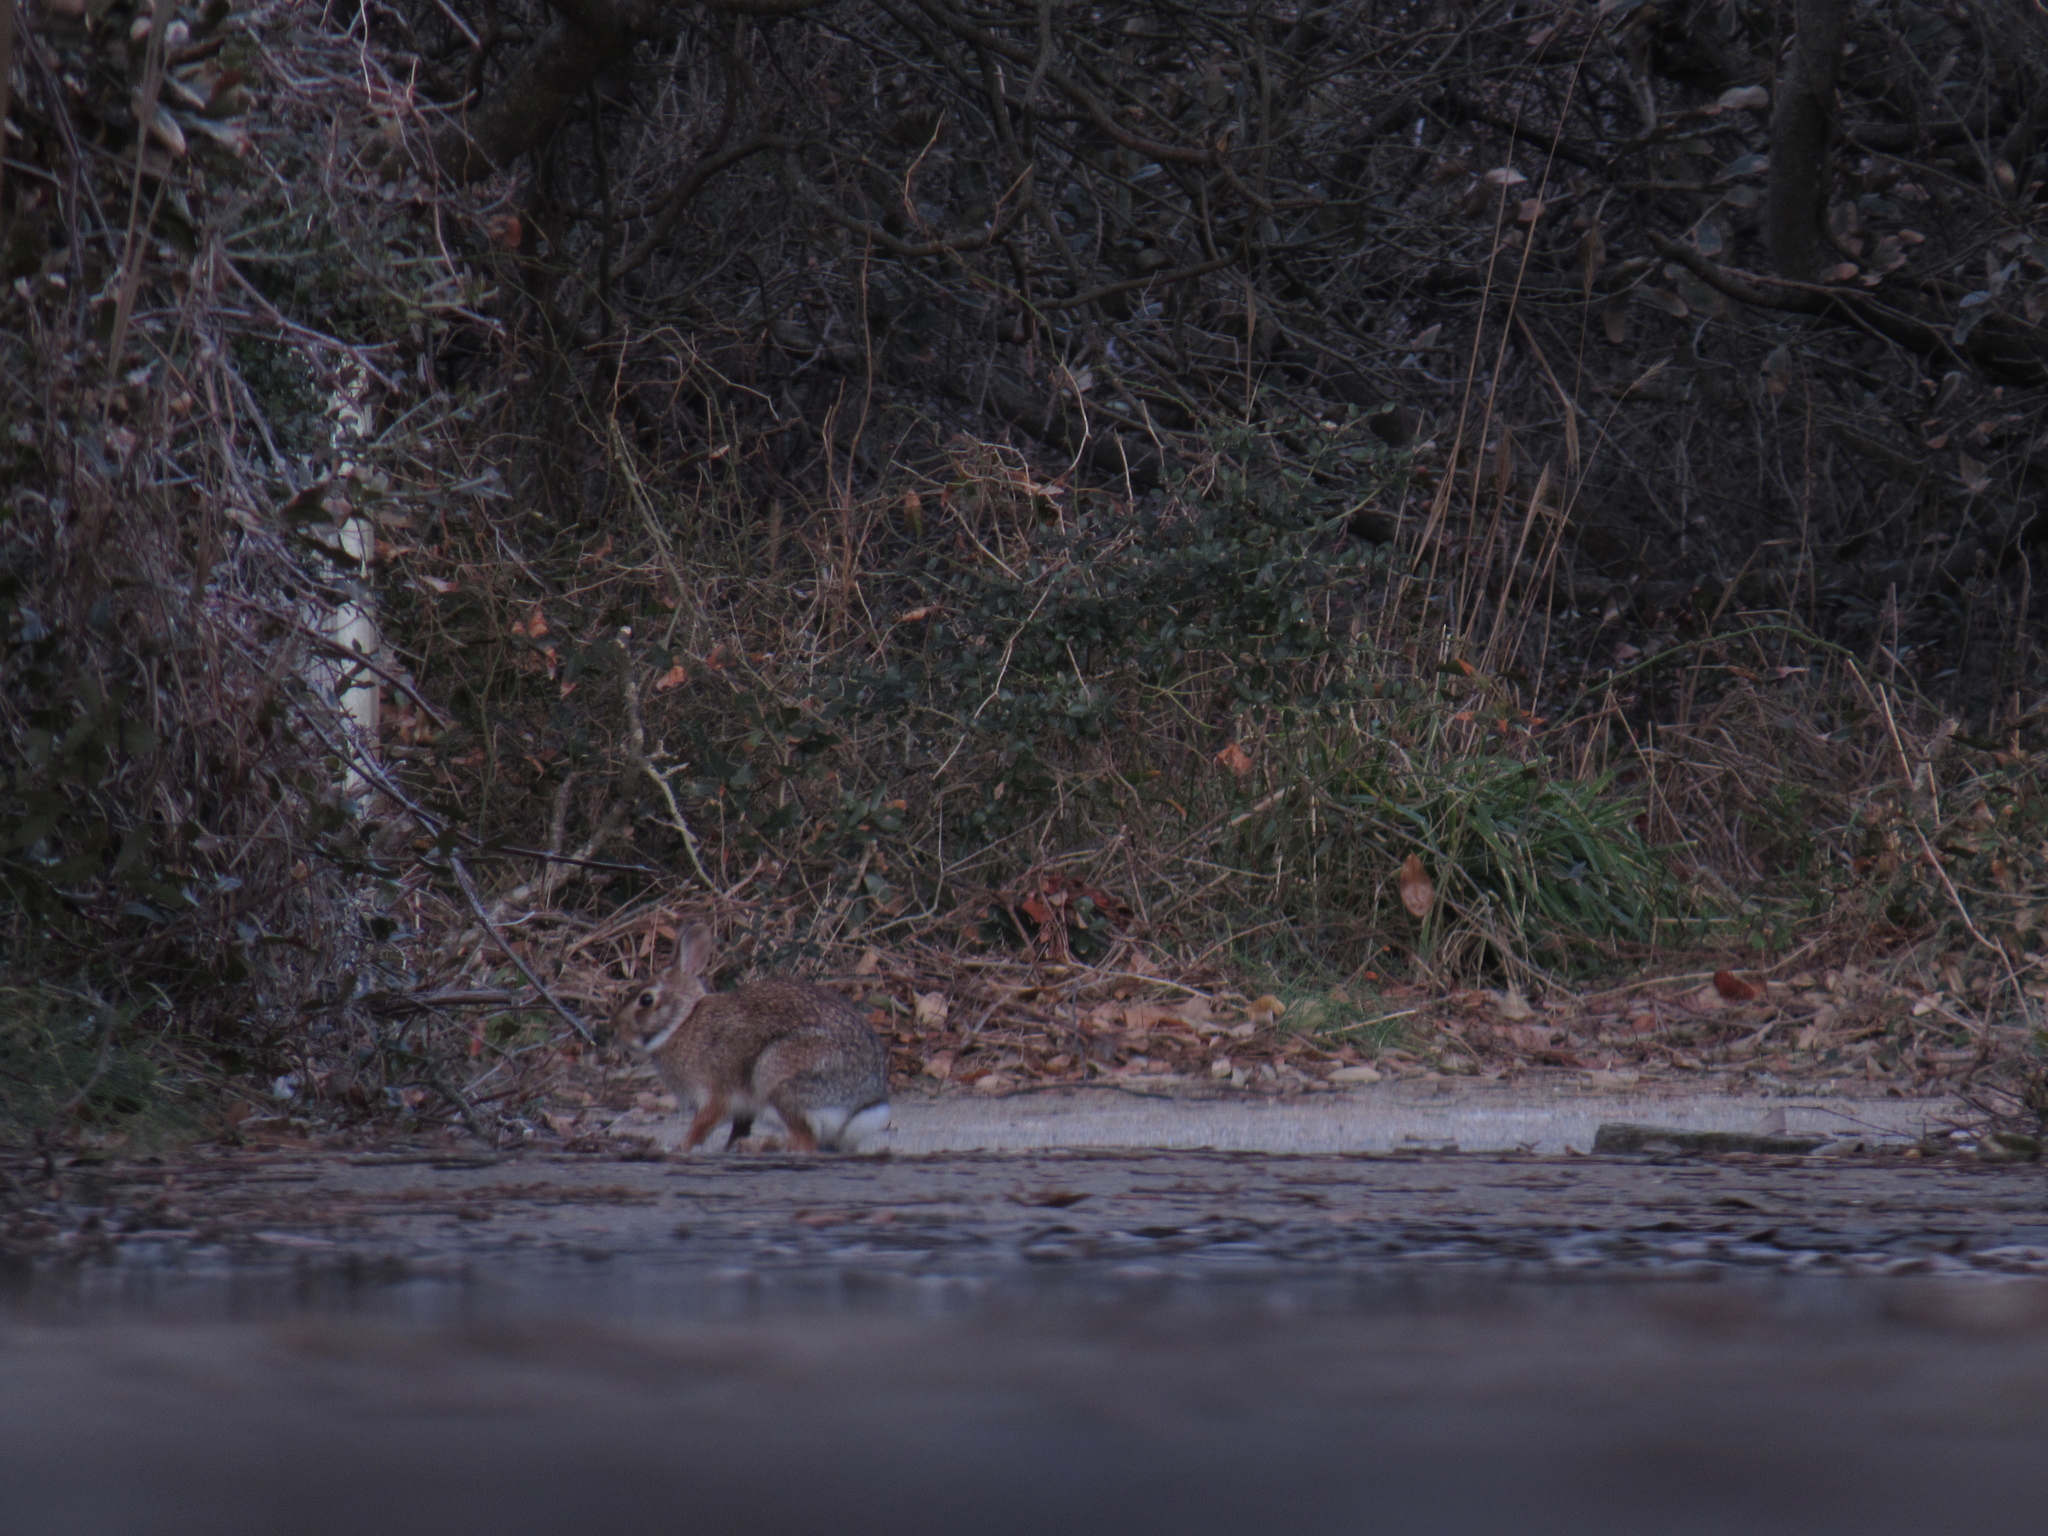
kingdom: Animalia
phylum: Chordata
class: Mammalia
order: Lagomorpha
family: Leporidae
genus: Sylvilagus
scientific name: Sylvilagus floridanus
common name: Eastern cottontail
